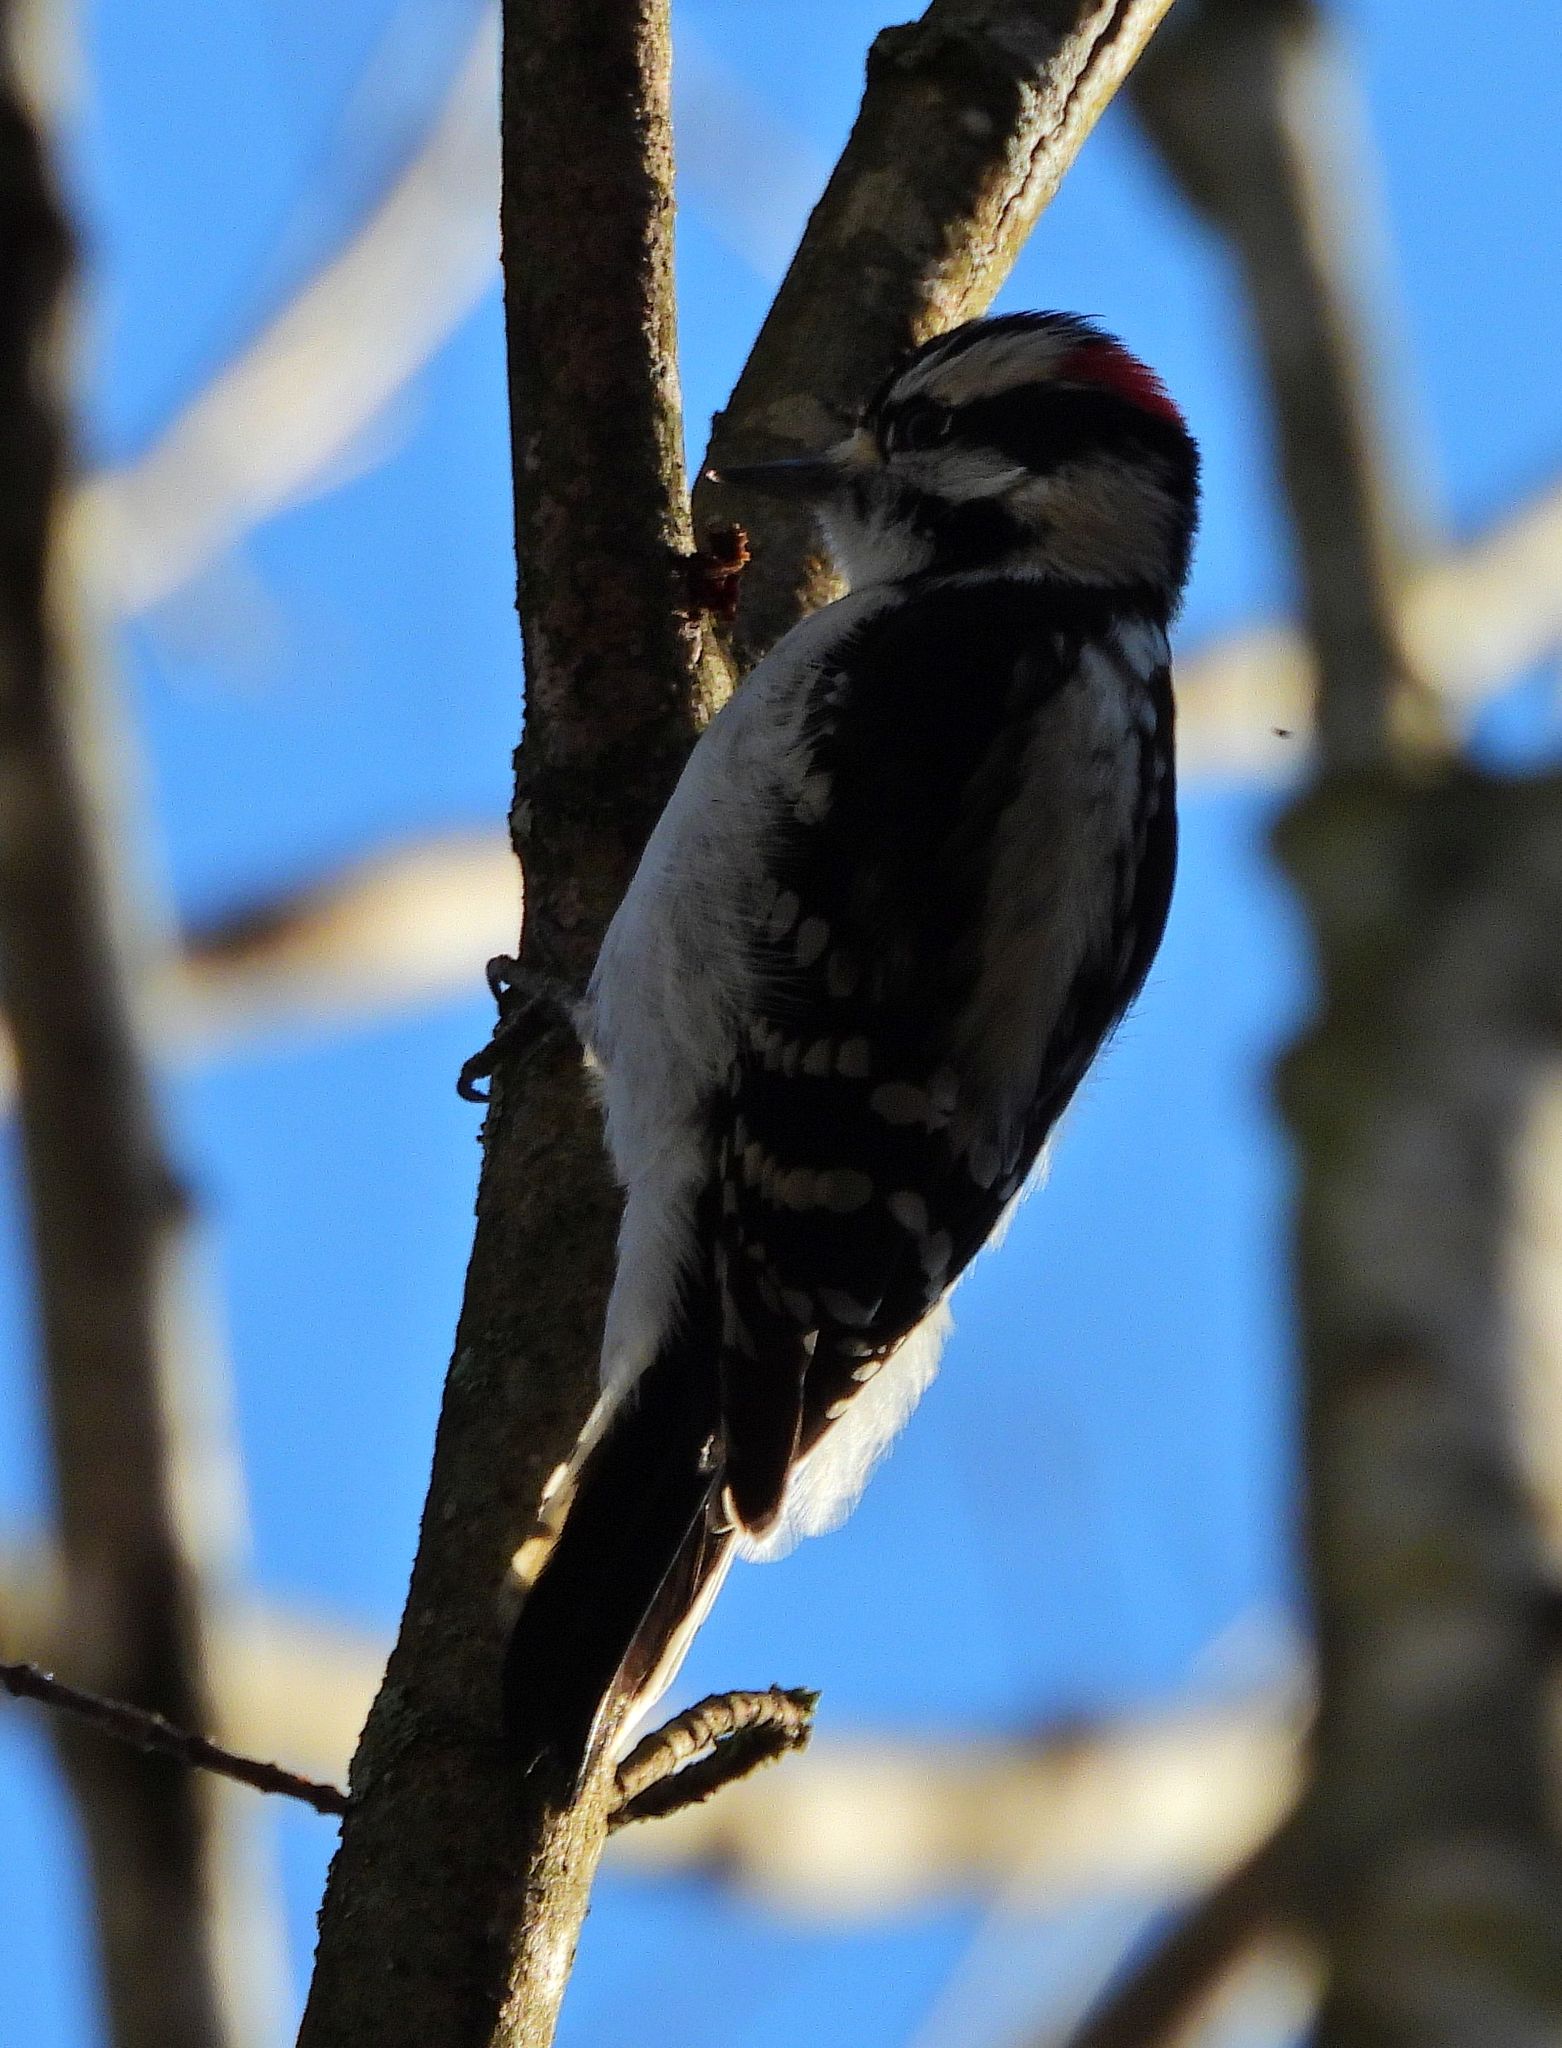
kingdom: Animalia
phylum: Chordata
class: Aves
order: Piciformes
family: Picidae
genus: Dryobates
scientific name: Dryobates pubescens
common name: Downy woodpecker
